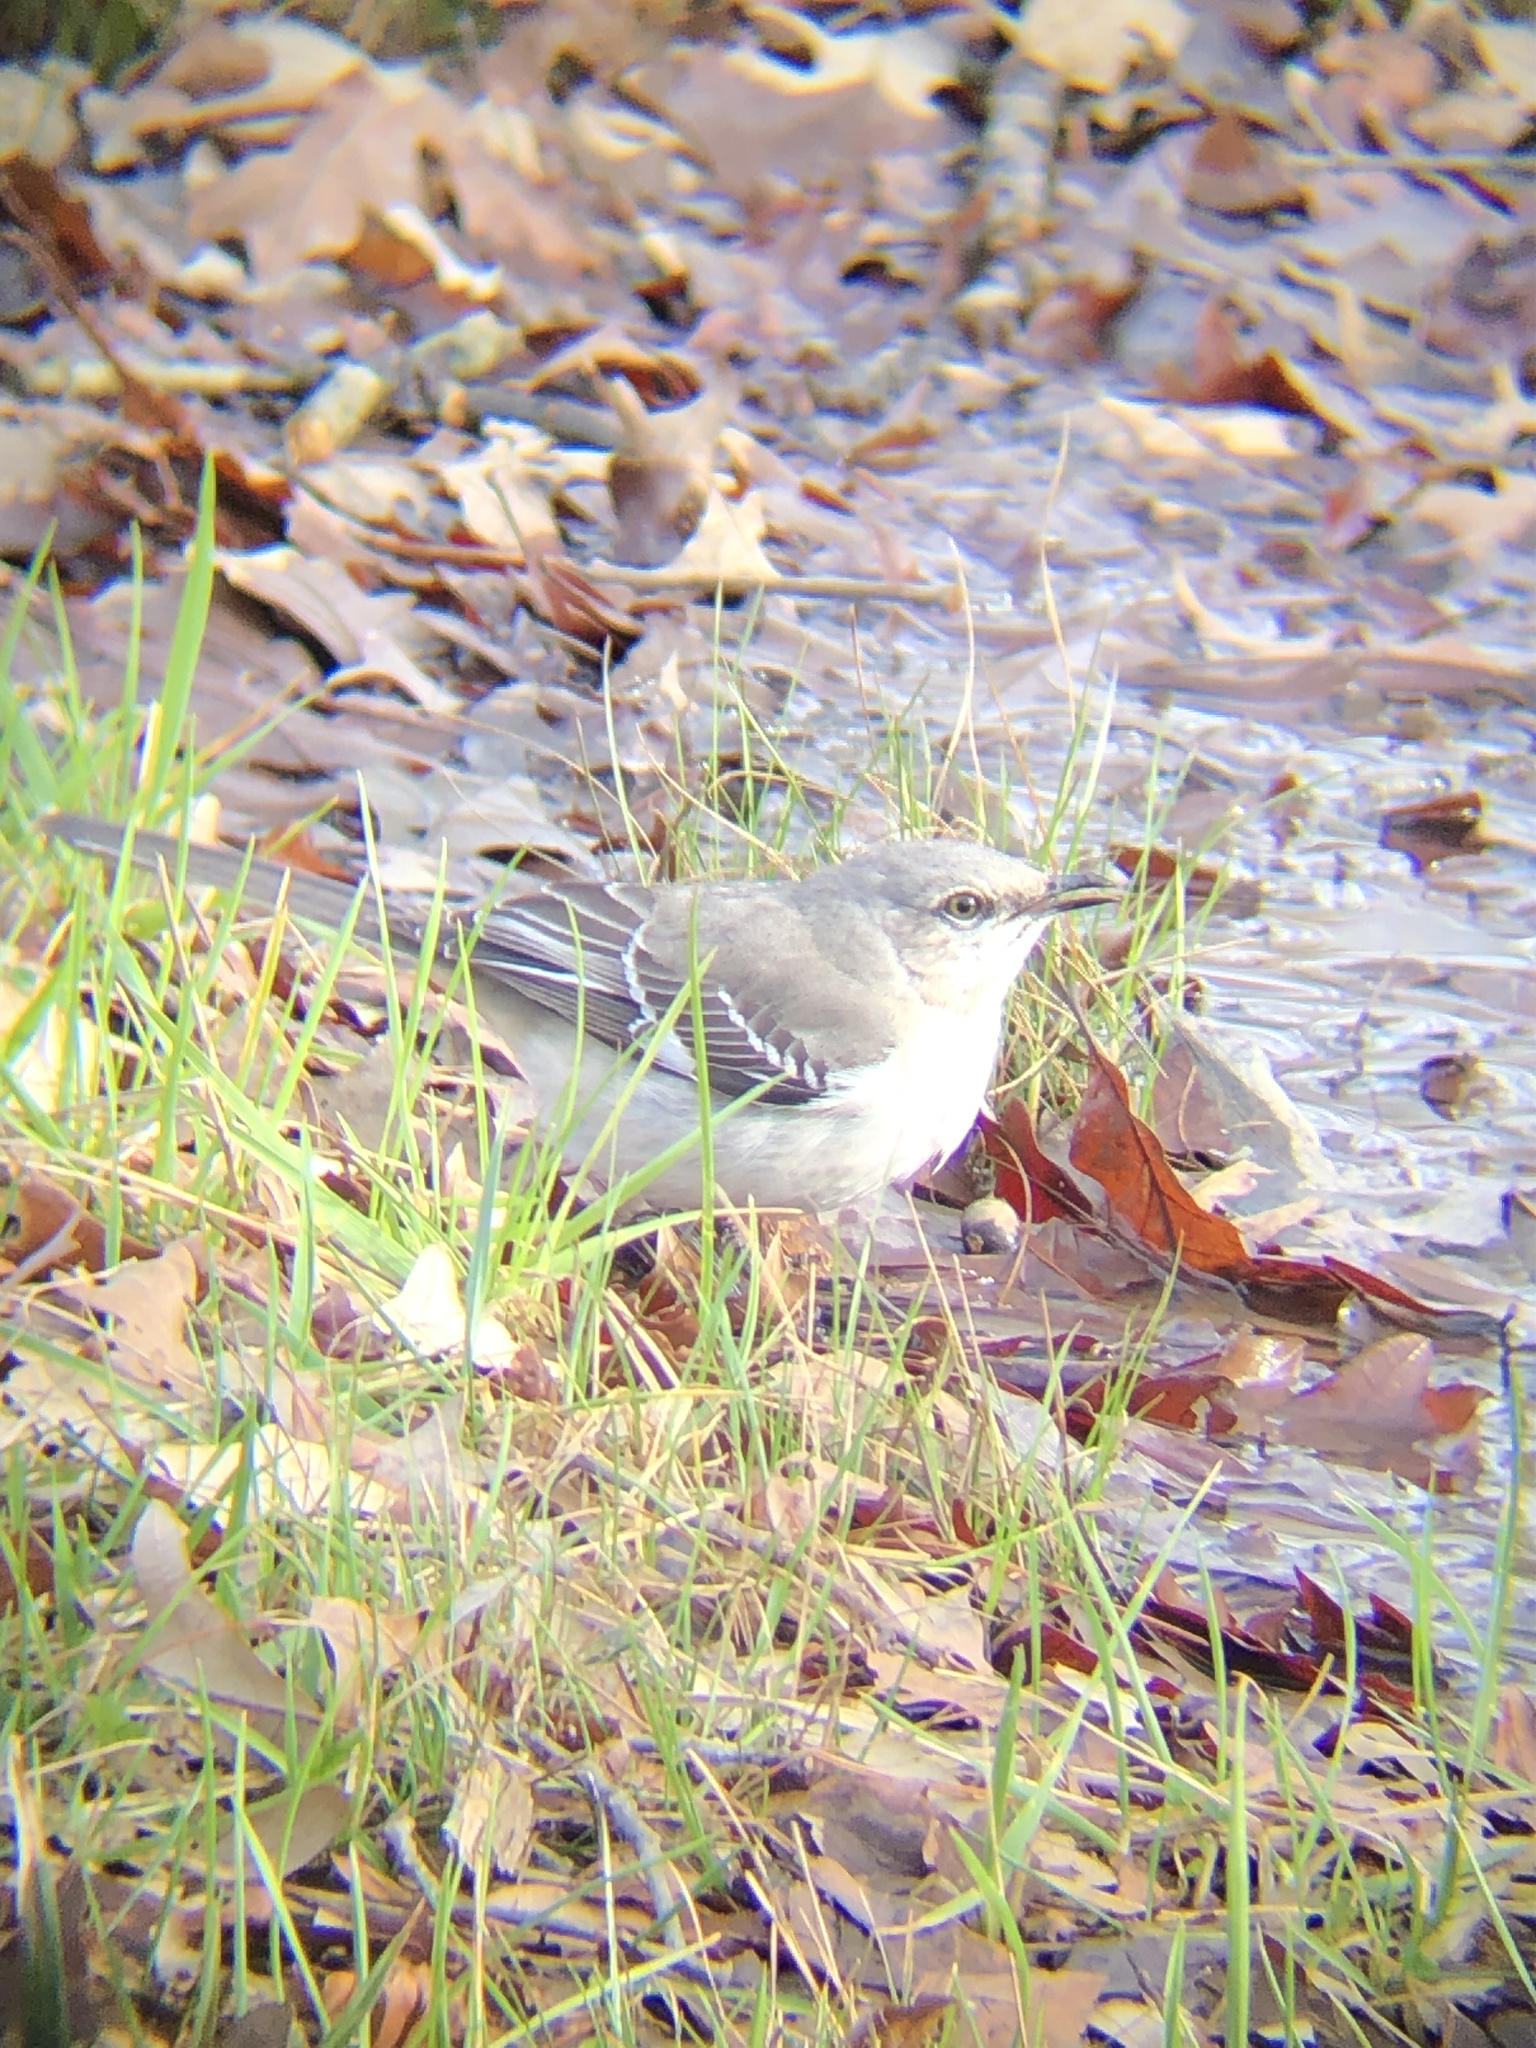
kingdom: Animalia
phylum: Chordata
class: Aves
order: Passeriformes
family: Mimidae
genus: Mimus
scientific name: Mimus polyglottos
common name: Northern mockingbird
